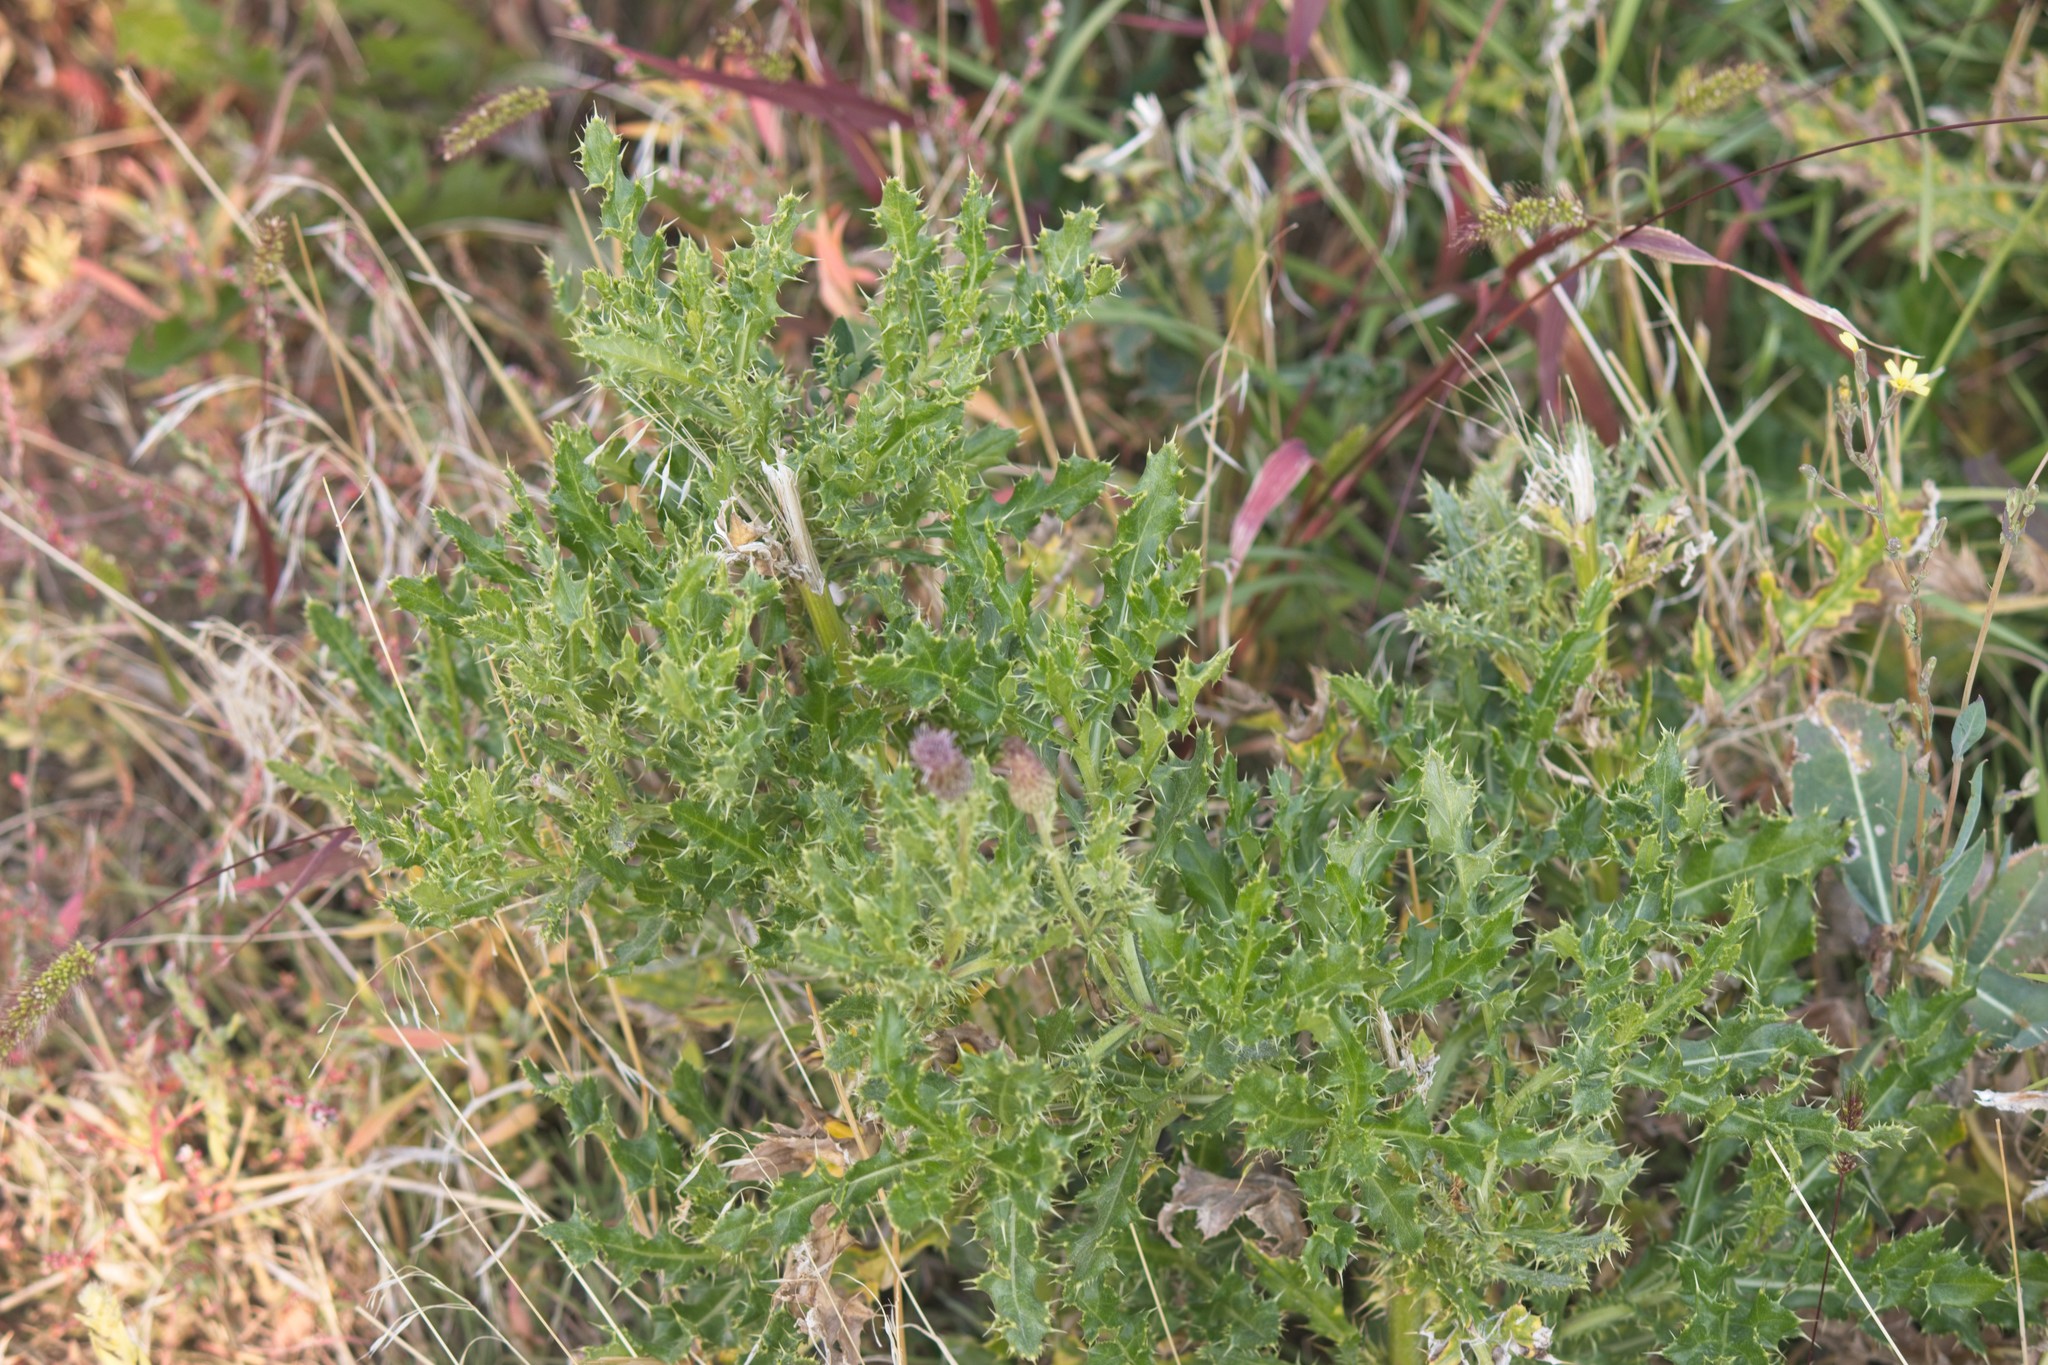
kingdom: Plantae
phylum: Tracheophyta
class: Magnoliopsida
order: Asterales
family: Asteraceae
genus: Cirsium
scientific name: Cirsium arvense
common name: Creeping thistle
